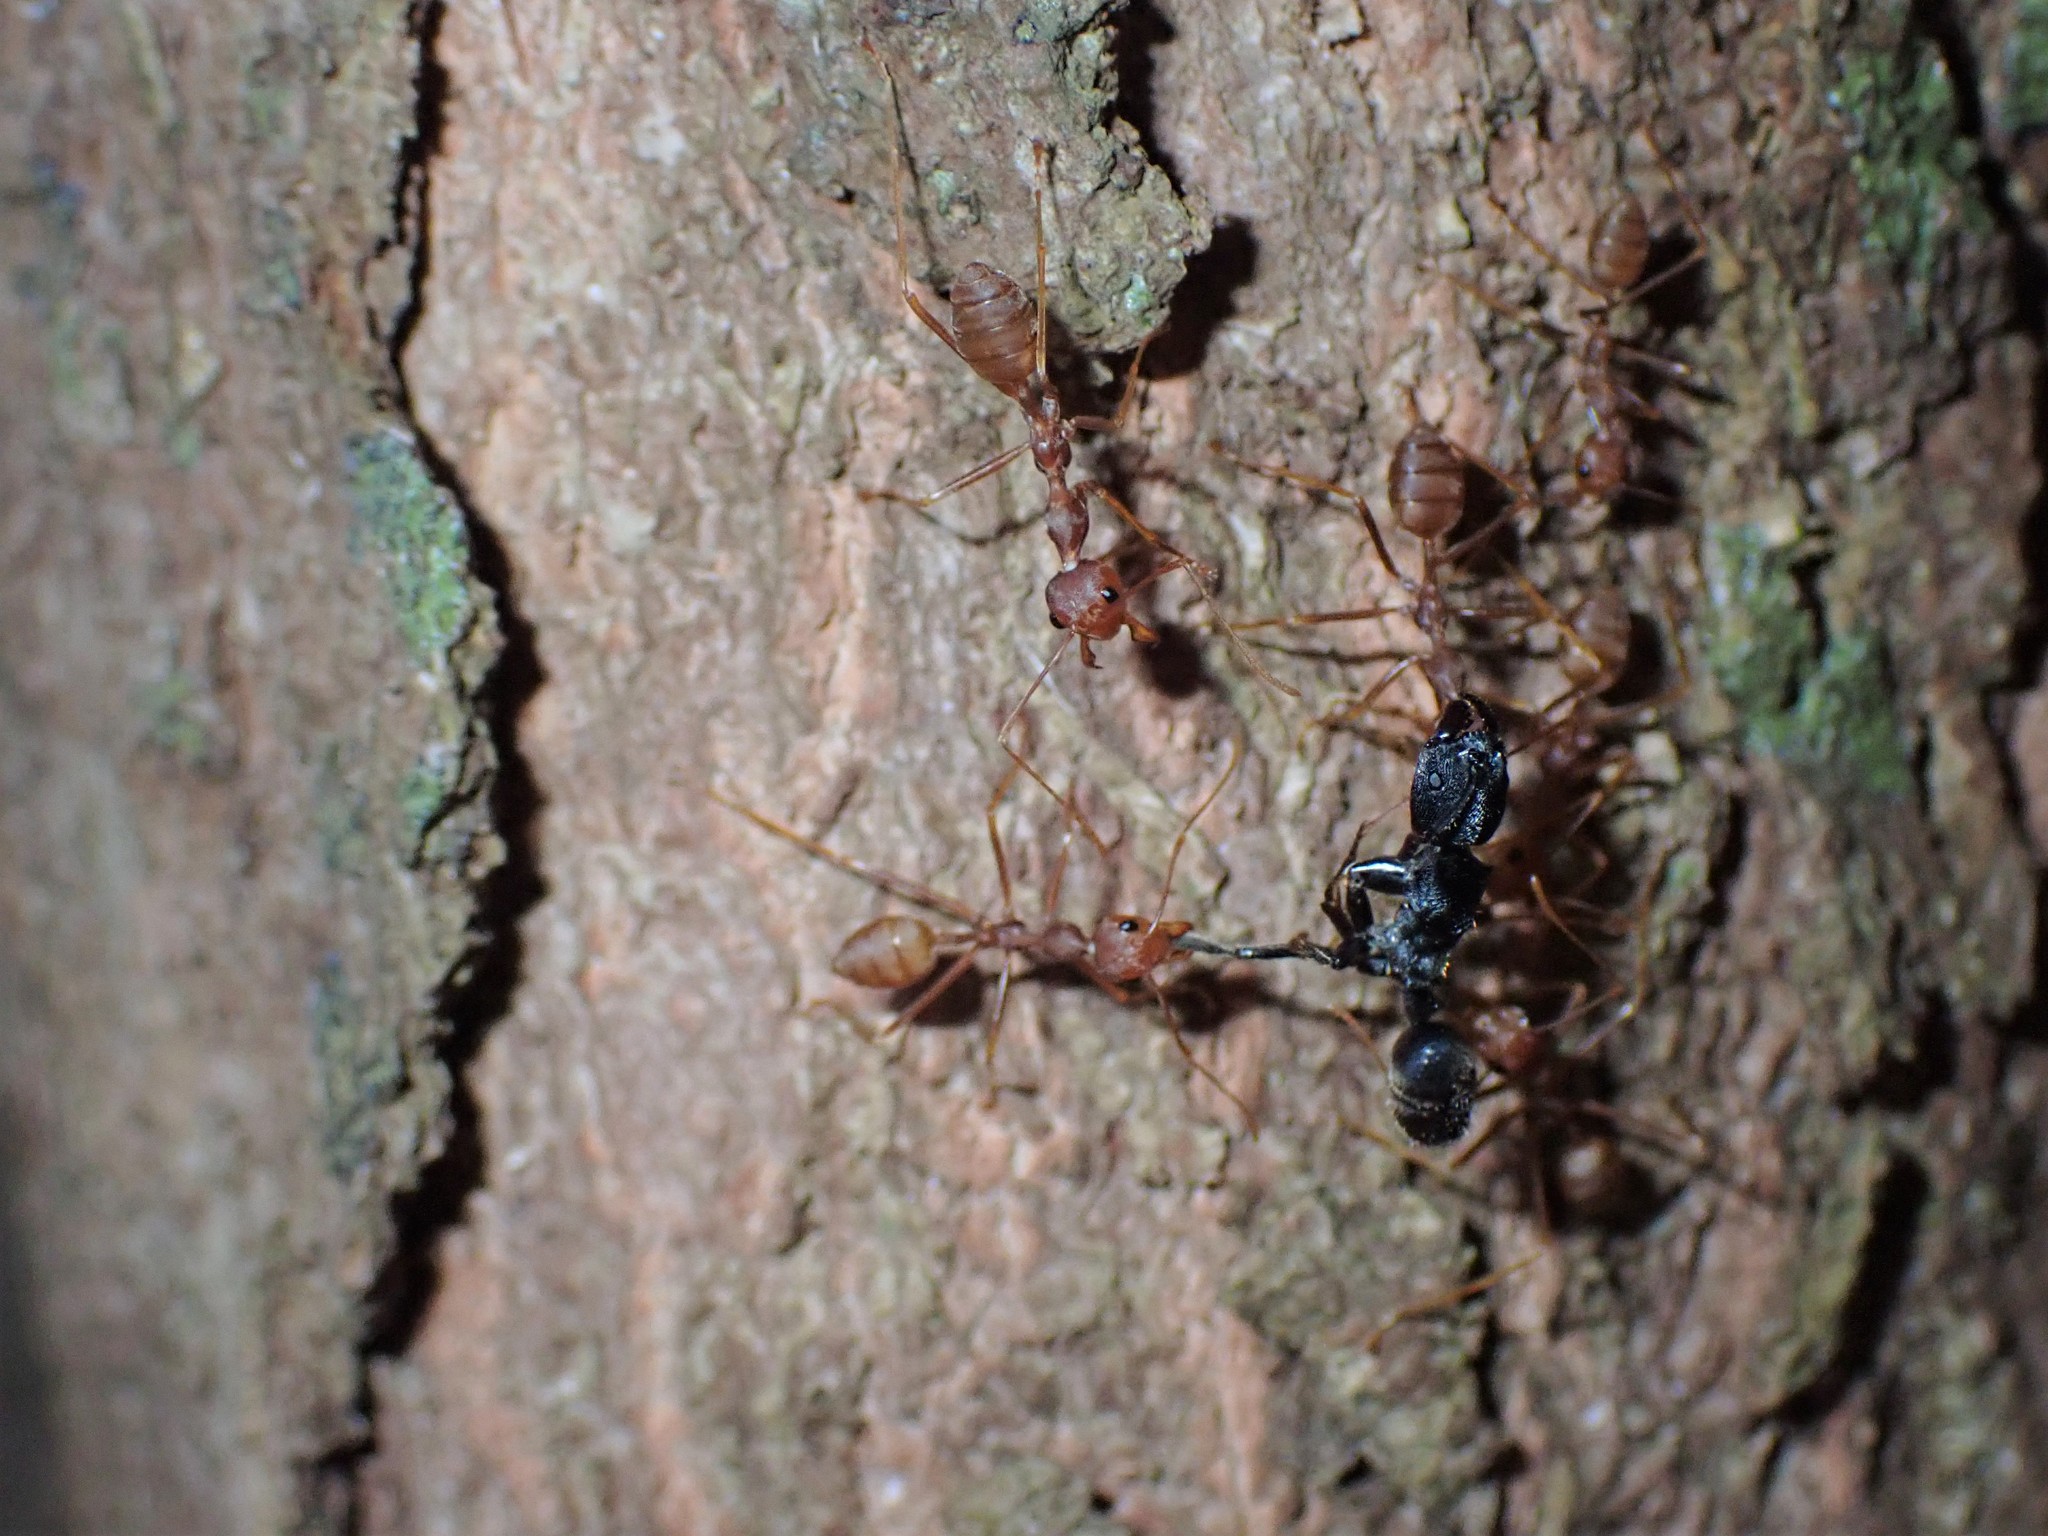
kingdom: Animalia
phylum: Arthropoda
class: Insecta
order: Hymenoptera
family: Formicidae
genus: Odontoponera
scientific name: Odontoponera denticulata
